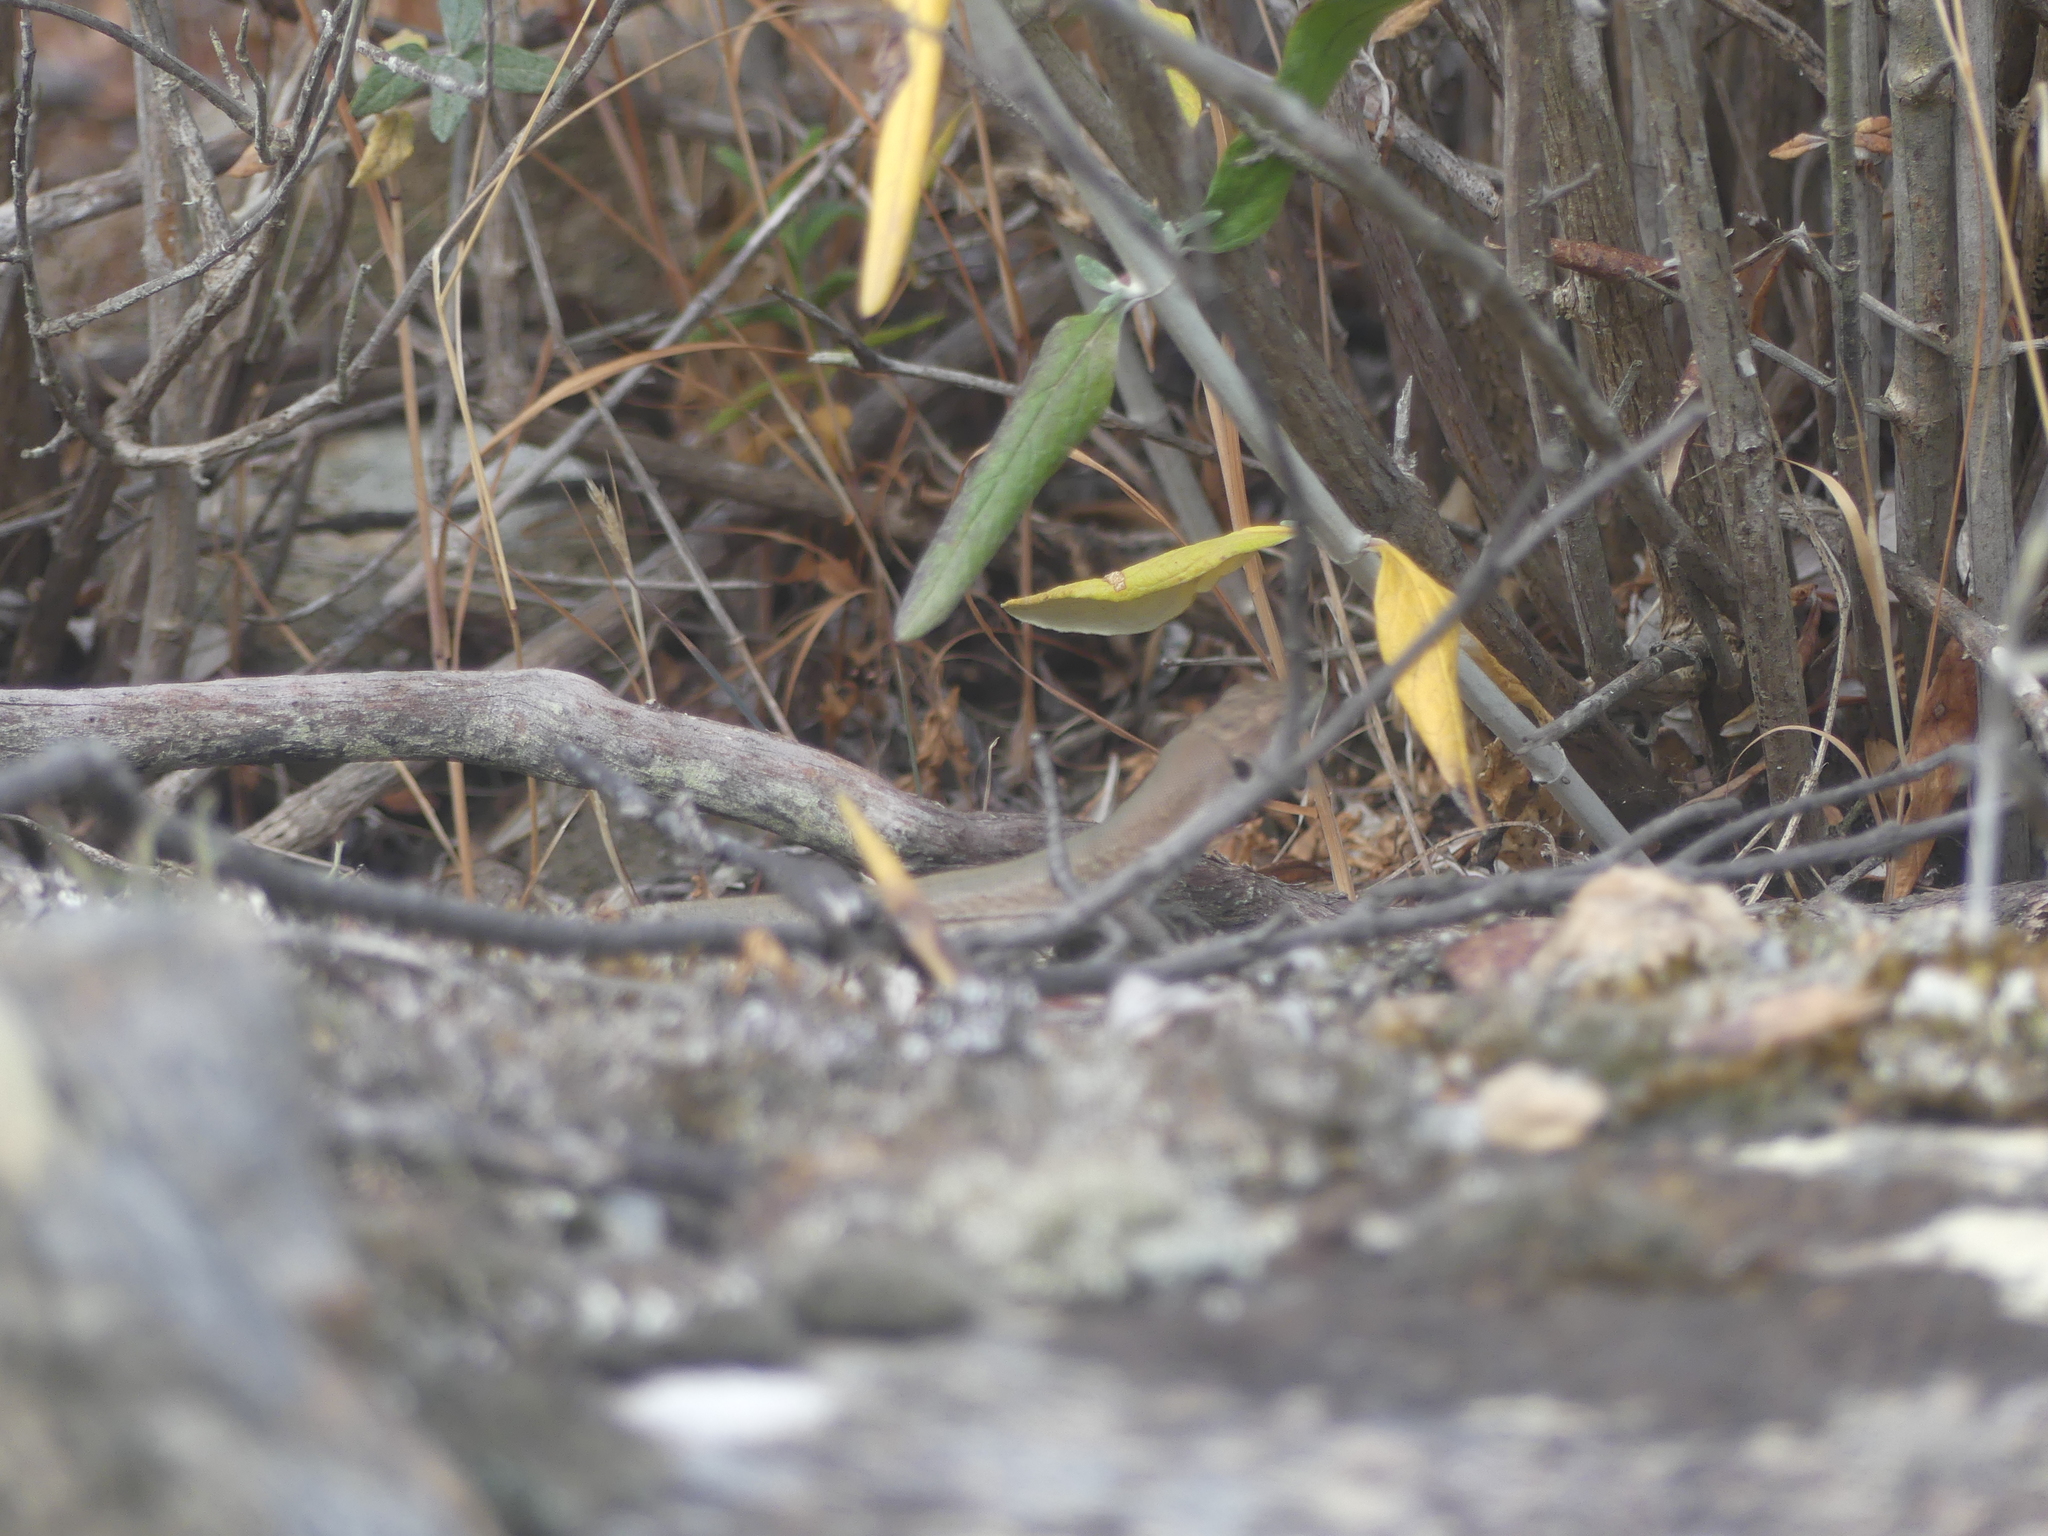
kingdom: Animalia
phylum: Chordata
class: Squamata
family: Lacertidae
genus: Podarcis
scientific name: Podarcis siculus
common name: Italian wall lizard
